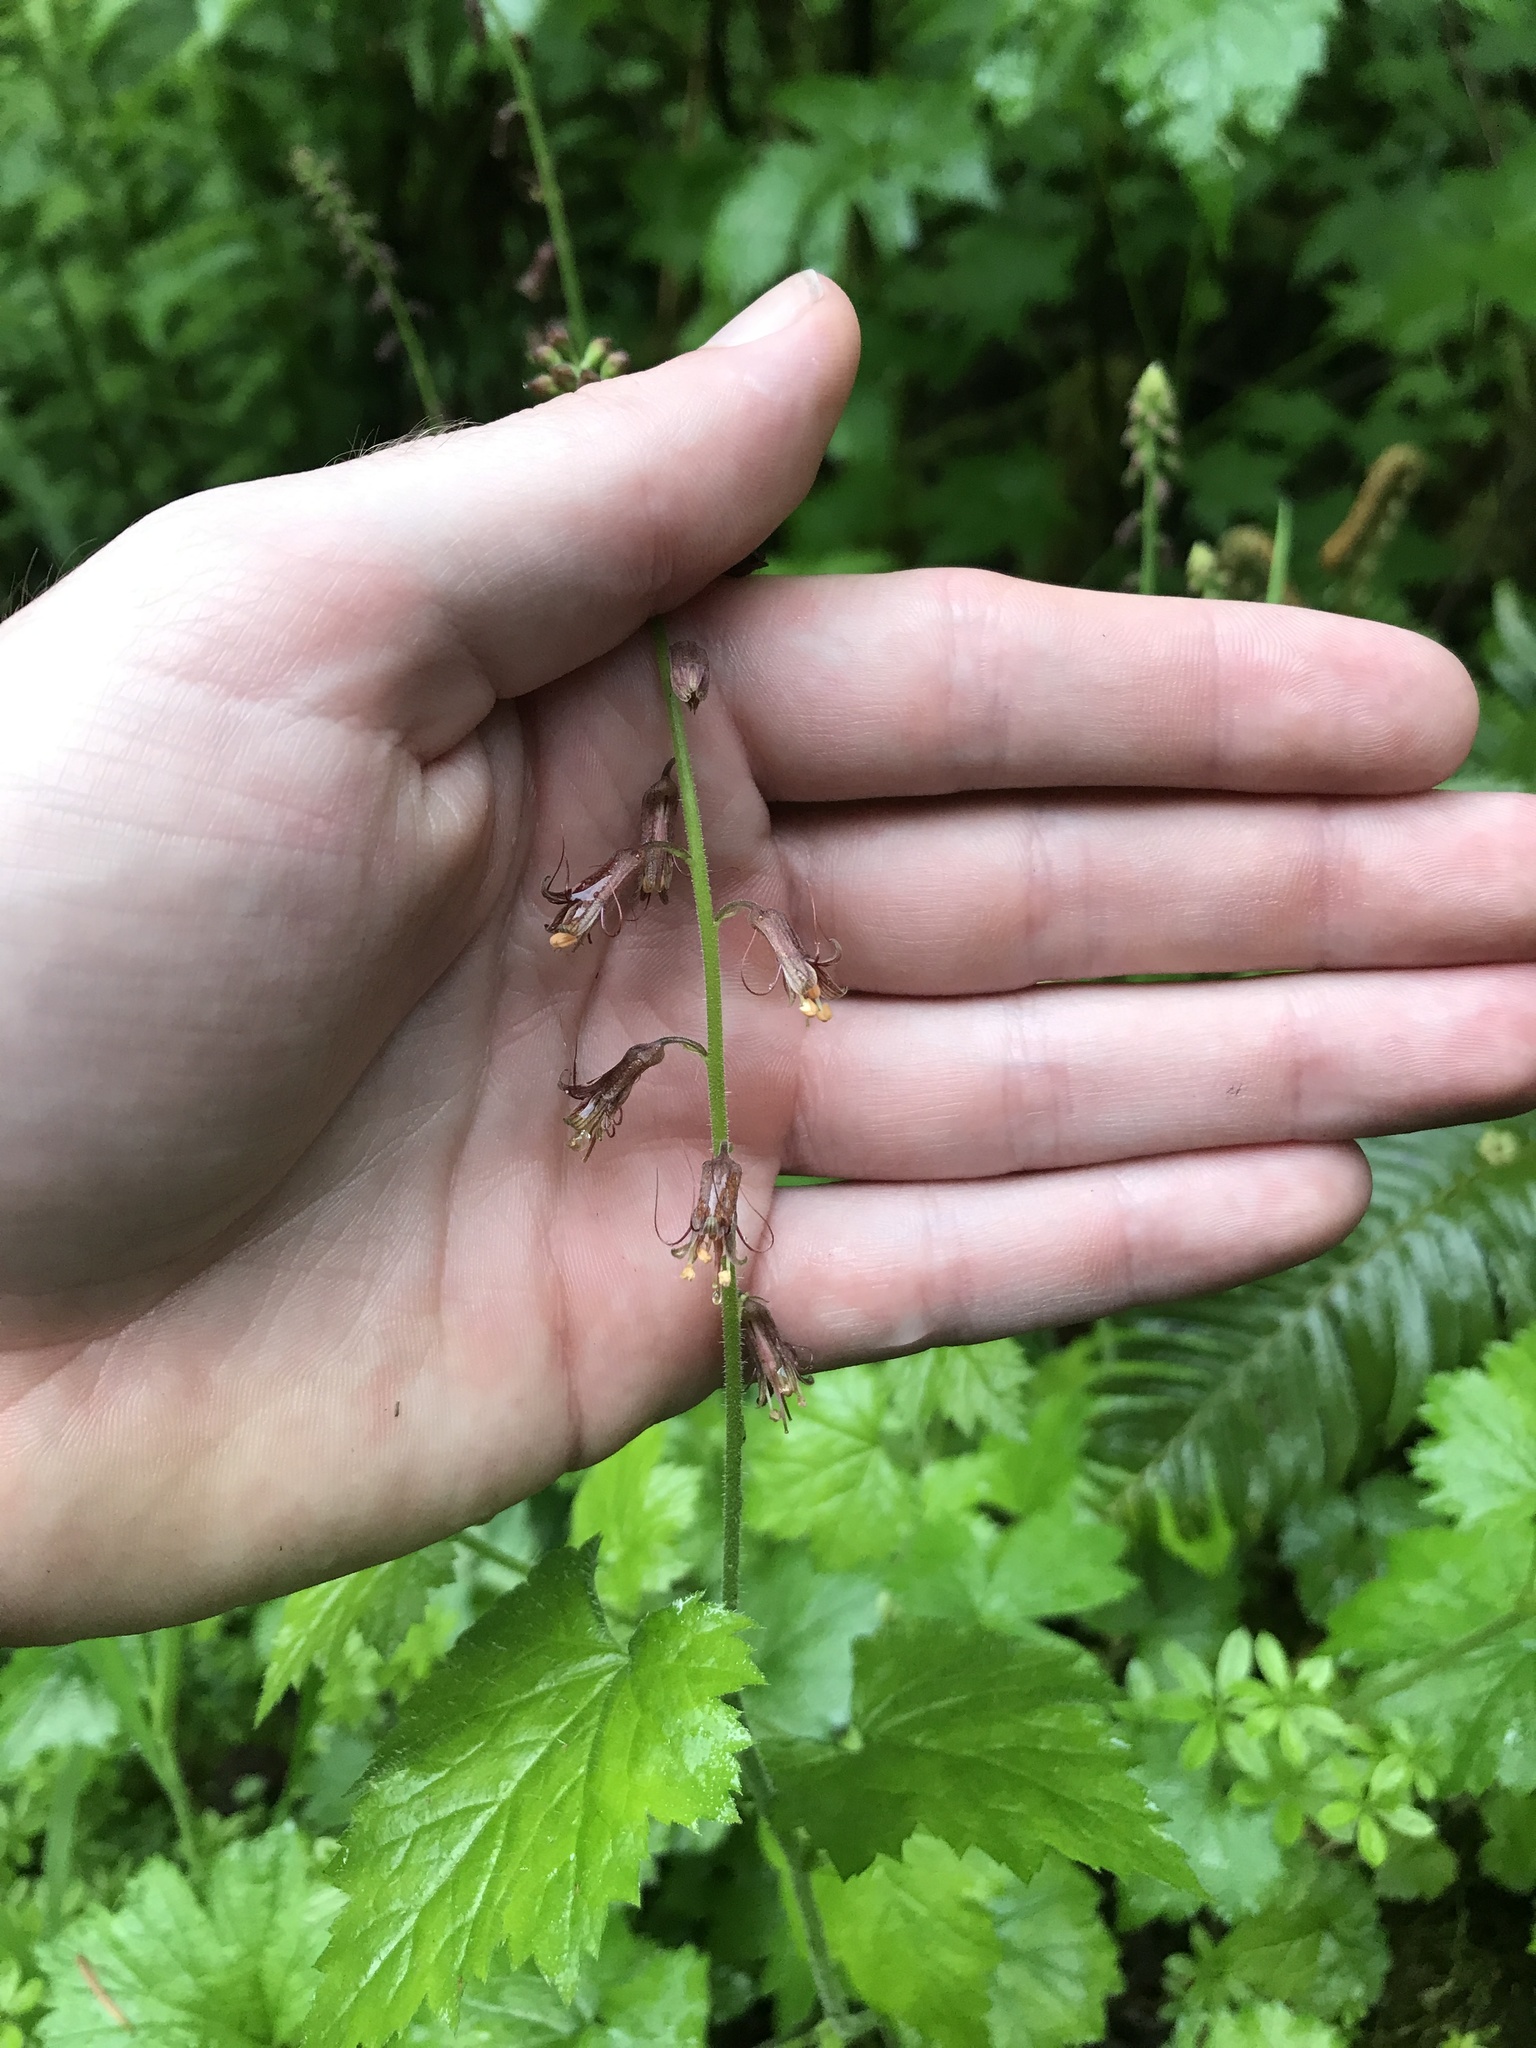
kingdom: Plantae
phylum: Tracheophyta
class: Magnoliopsida
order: Saxifragales
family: Saxifragaceae
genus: Tolmiea
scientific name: Tolmiea menziesii
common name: Pick-a-back-plant
